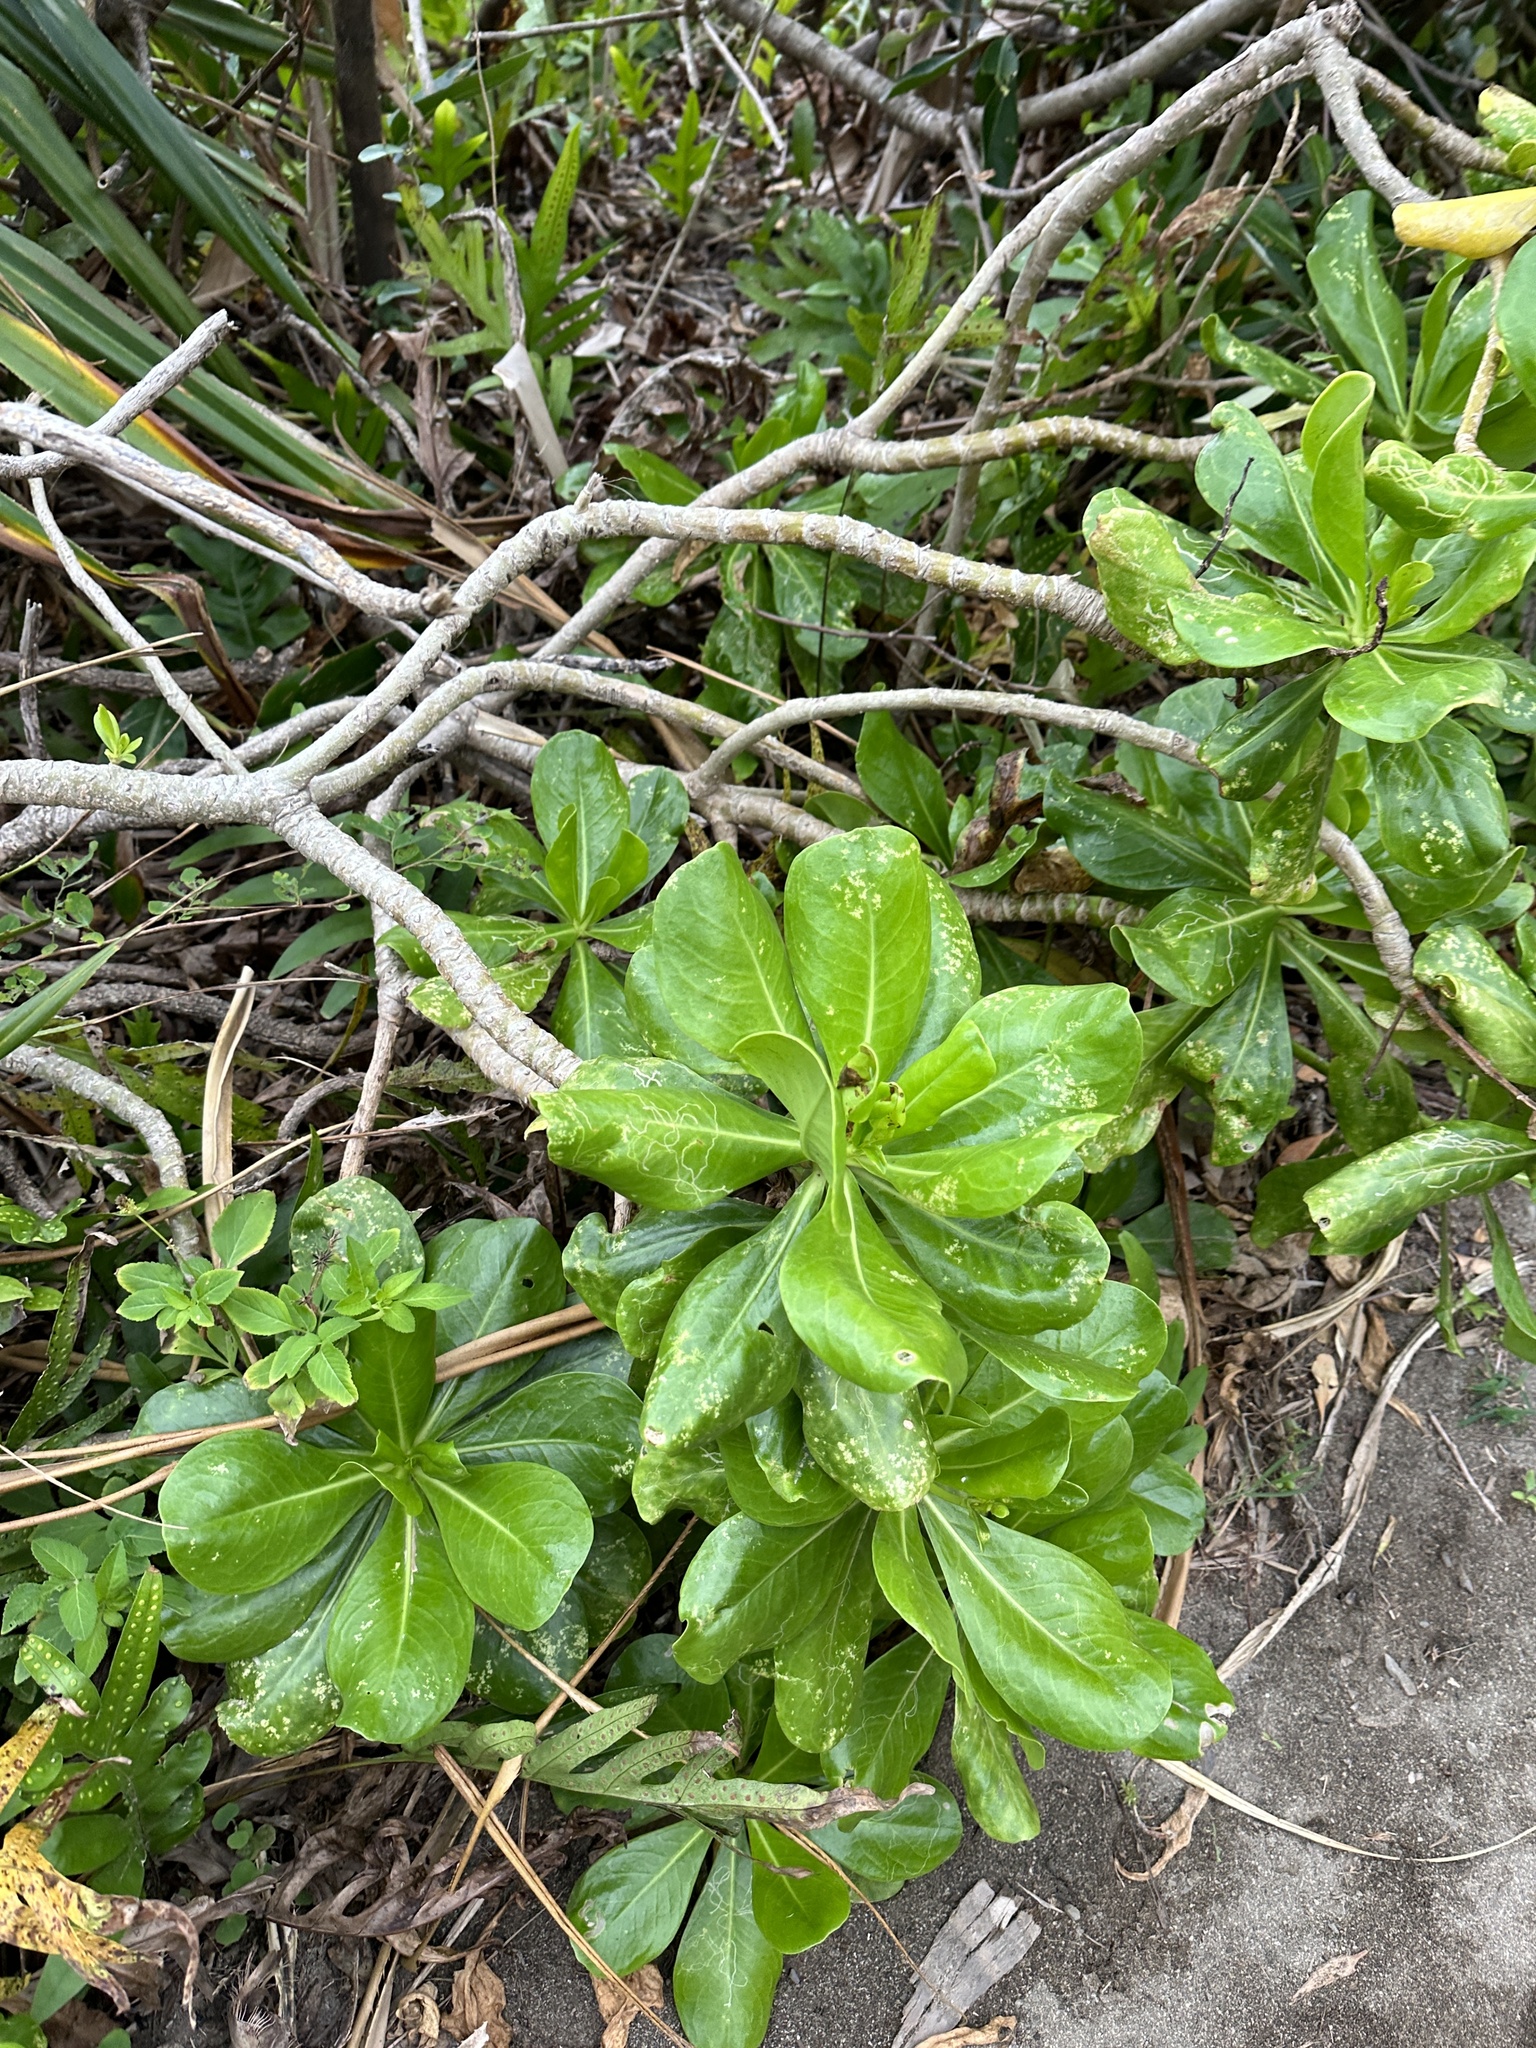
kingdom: Plantae
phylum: Tracheophyta
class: Magnoliopsida
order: Asterales
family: Goodeniaceae
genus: Scaevola
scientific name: Scaevola taccada
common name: Sea lettucetree
